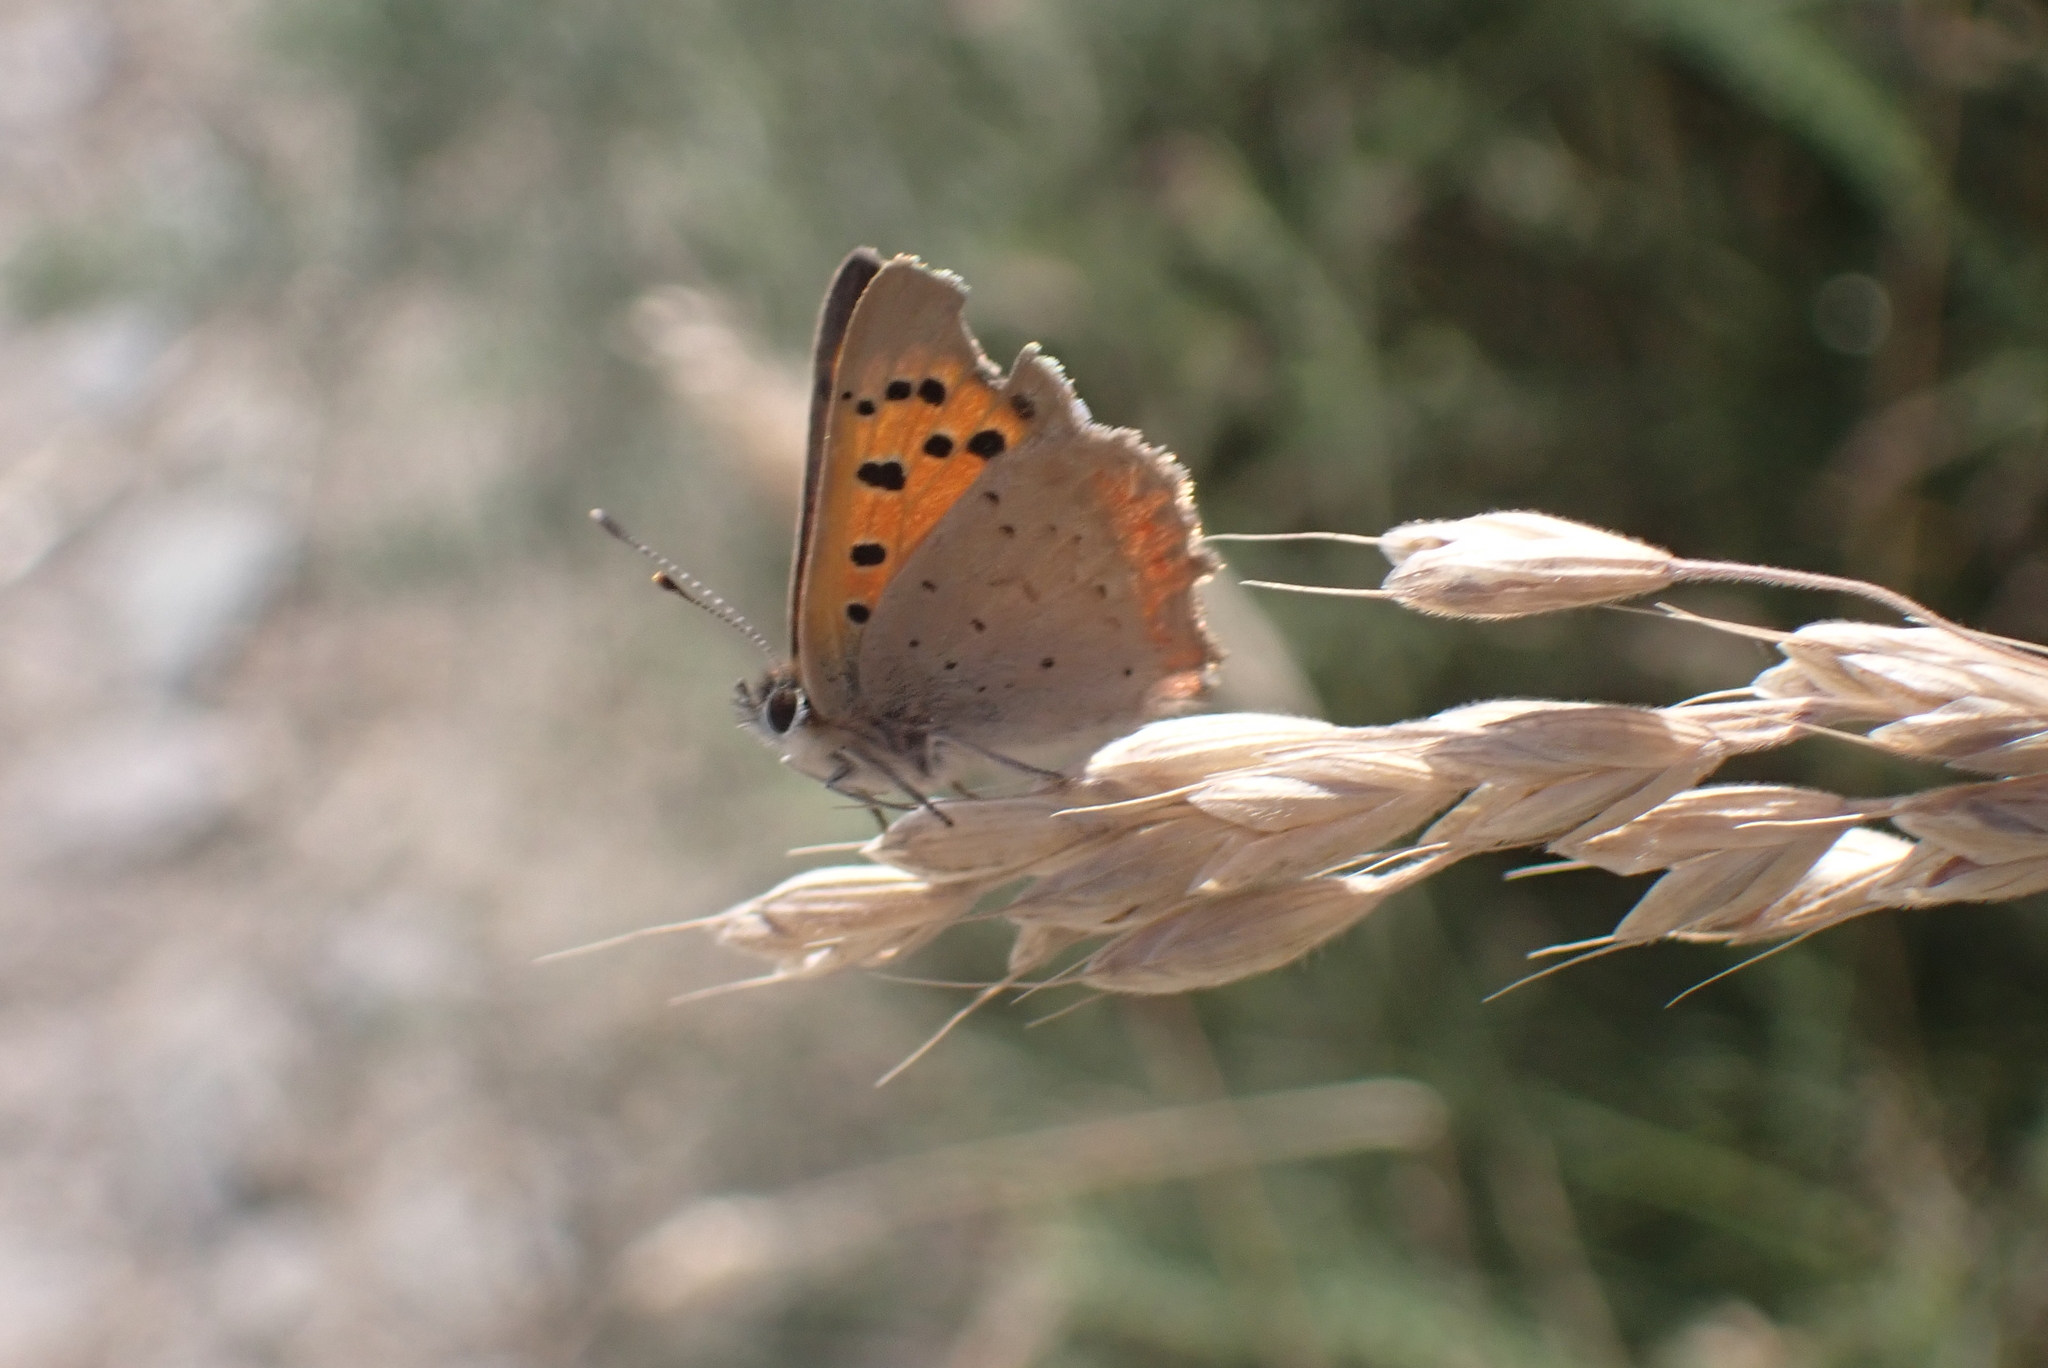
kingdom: Animalia
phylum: Arthropoda
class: Insecta
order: Lepidoptera
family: Lycaenidae
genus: Lycaena
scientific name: Lycaena phlaeas
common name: Small copper
